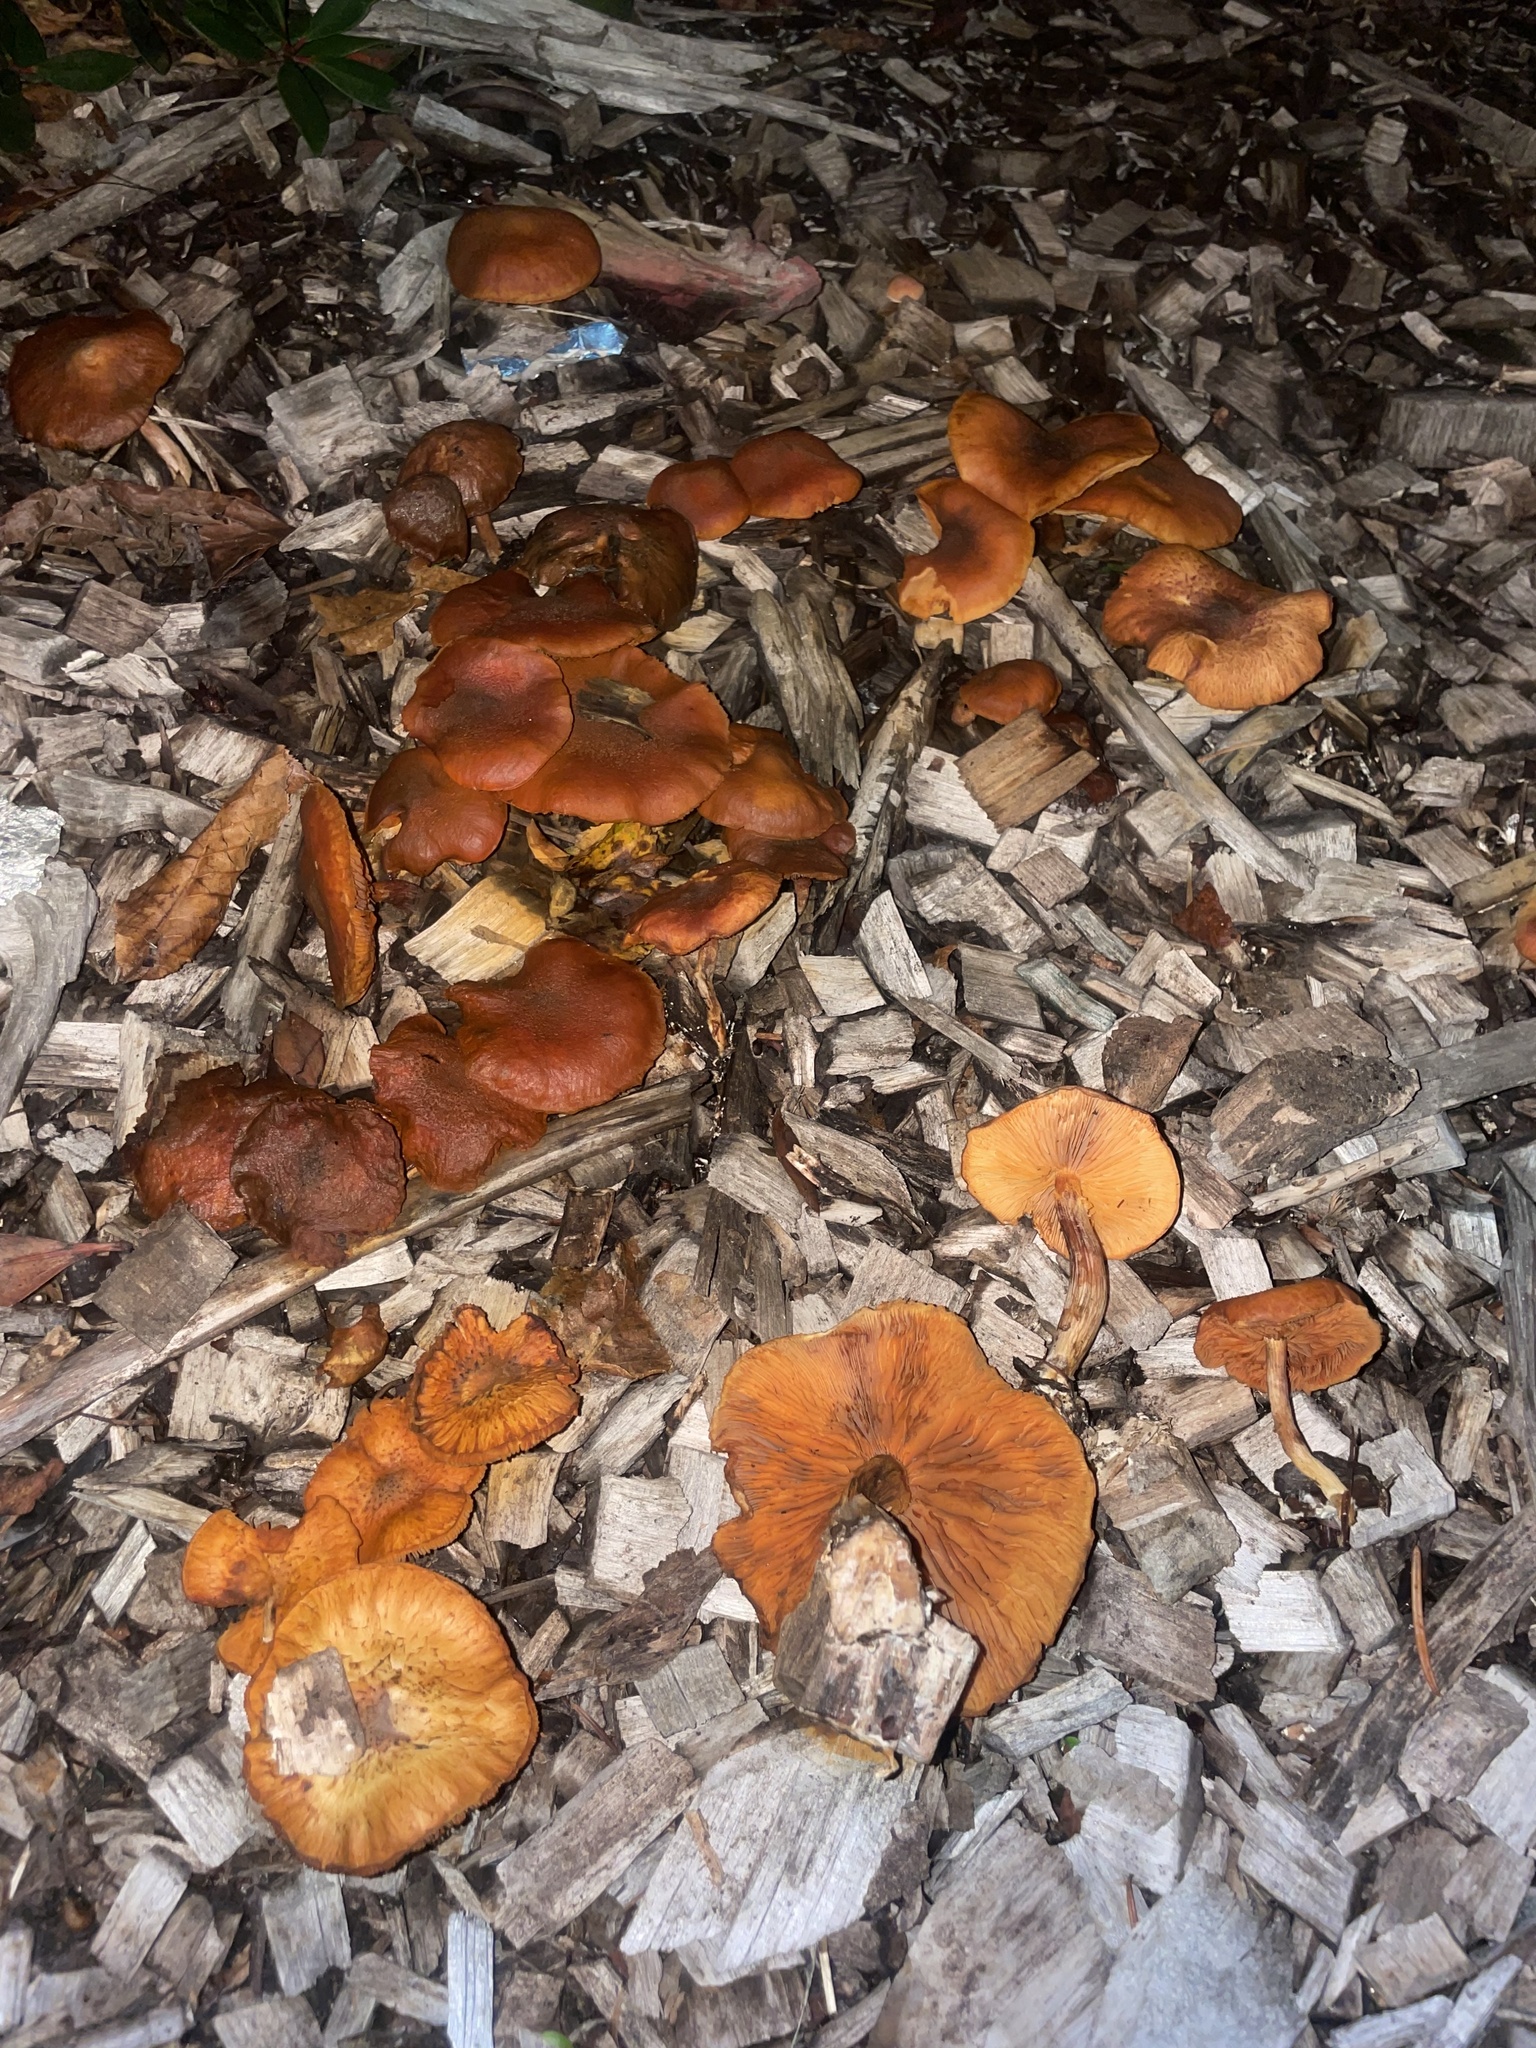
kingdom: Fungi
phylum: Basidiomycota
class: Agaricomycetes
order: Agaricales
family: Hymenogastraceae
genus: Gymnopilus
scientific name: Gymnopilus luteofolius
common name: Yellow-gilled gymnopilus
